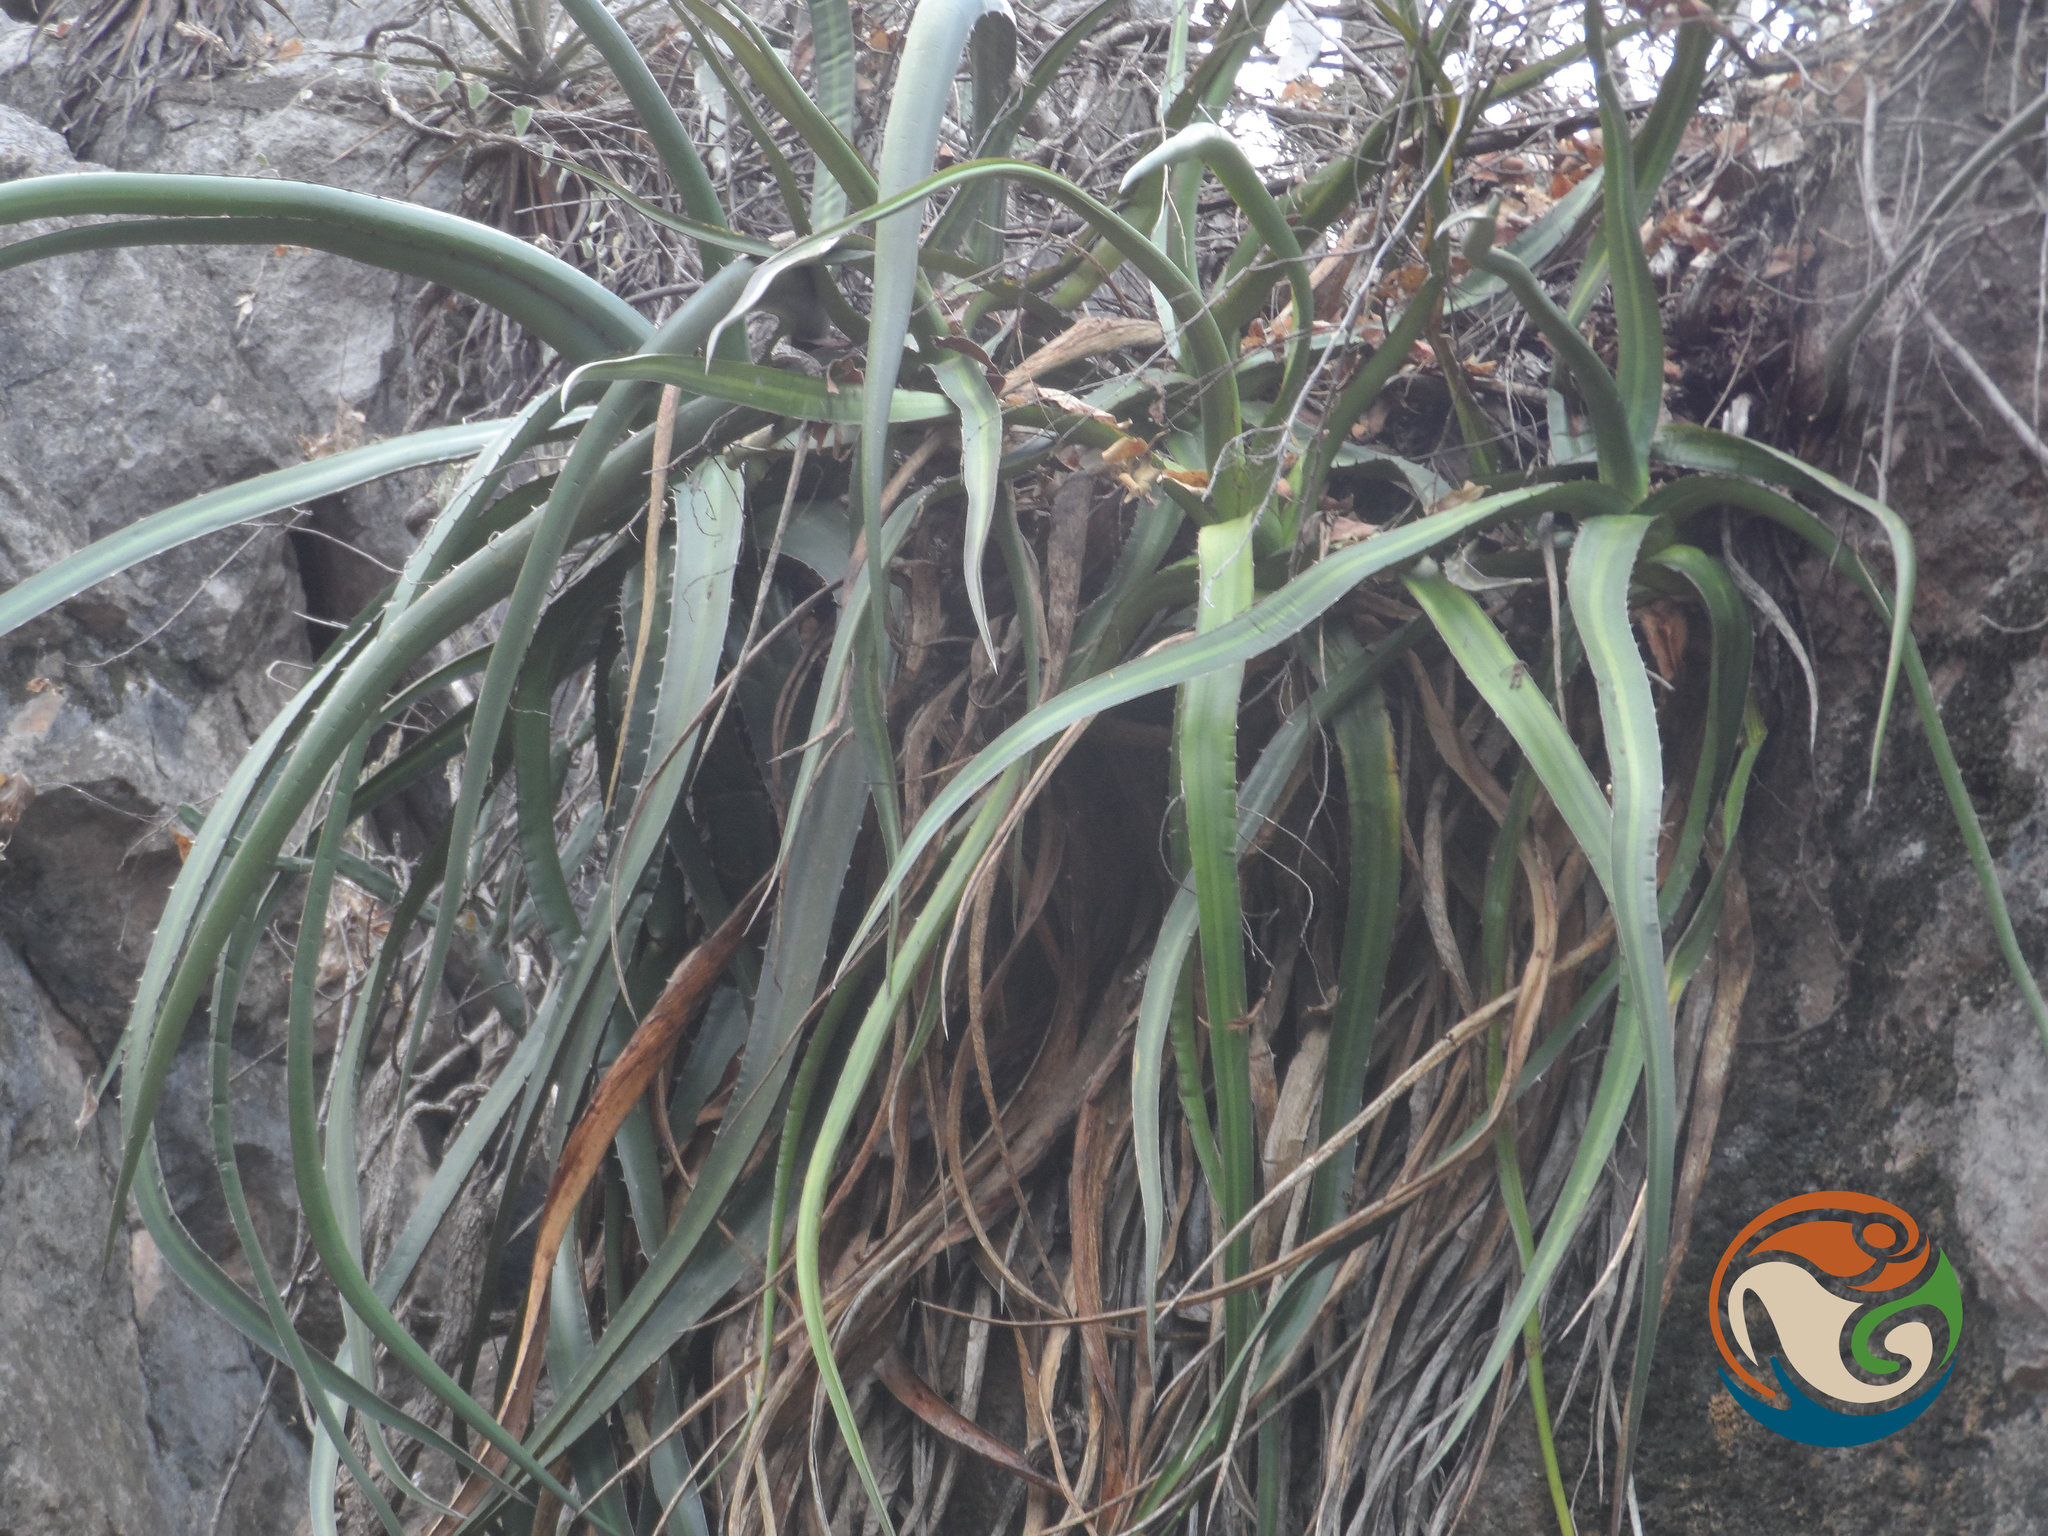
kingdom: Plantae
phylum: Tracheophyta
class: Liliopsida
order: Asparagales
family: Asparagaceae
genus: Agave
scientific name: Agave angustiarum
